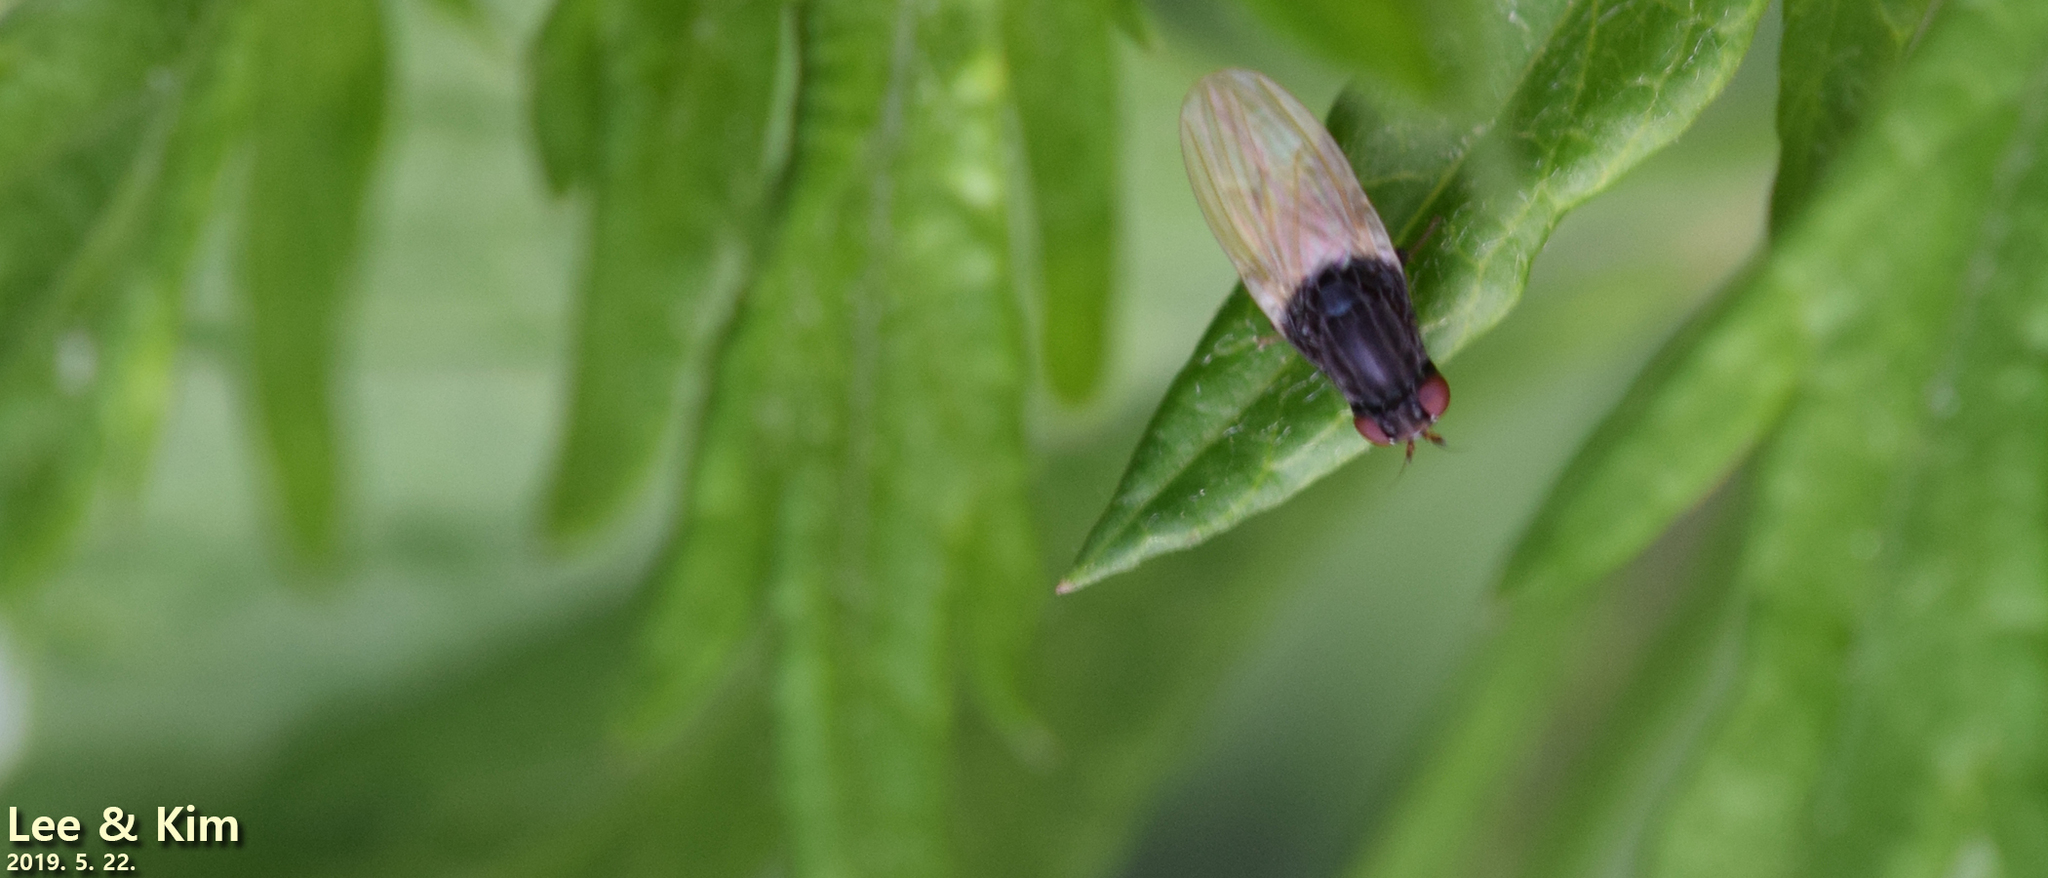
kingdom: Animalia
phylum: Arthropoda
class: Insecta
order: Diptera
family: Lauxaniidae
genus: Minettia
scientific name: Minettia longipennis
